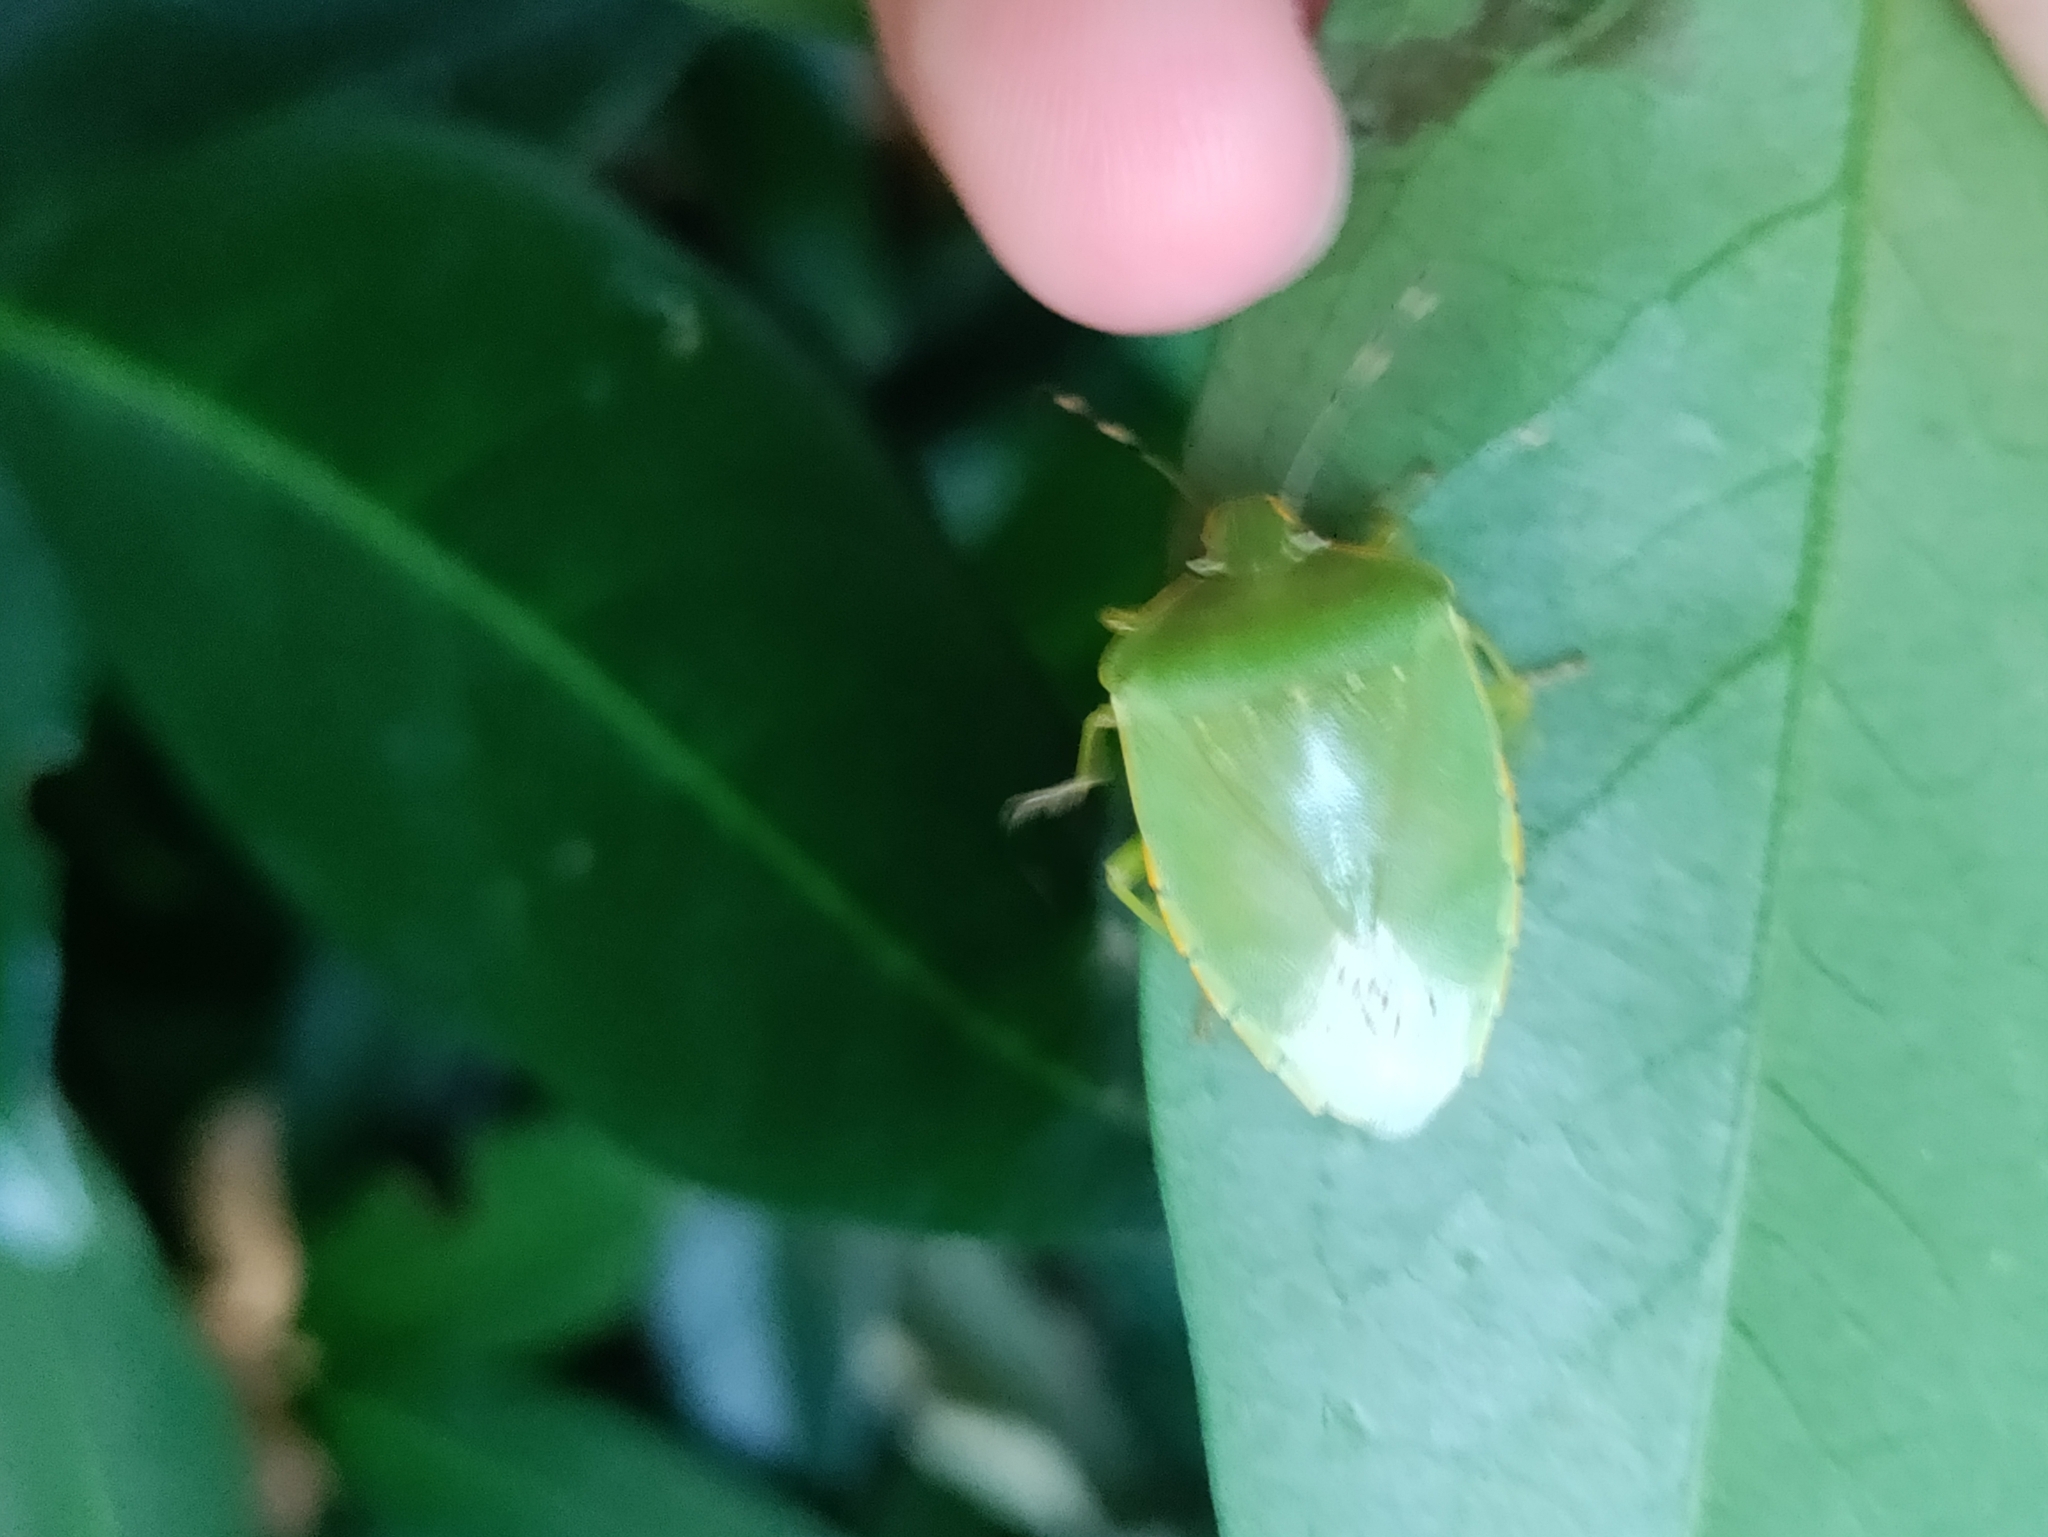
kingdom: Animalia
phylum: Arthropoda
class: Insecta
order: Hemiptera
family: Pentatomidae
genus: Chinavia
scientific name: Chinavia hilaris
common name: Green stink bug
